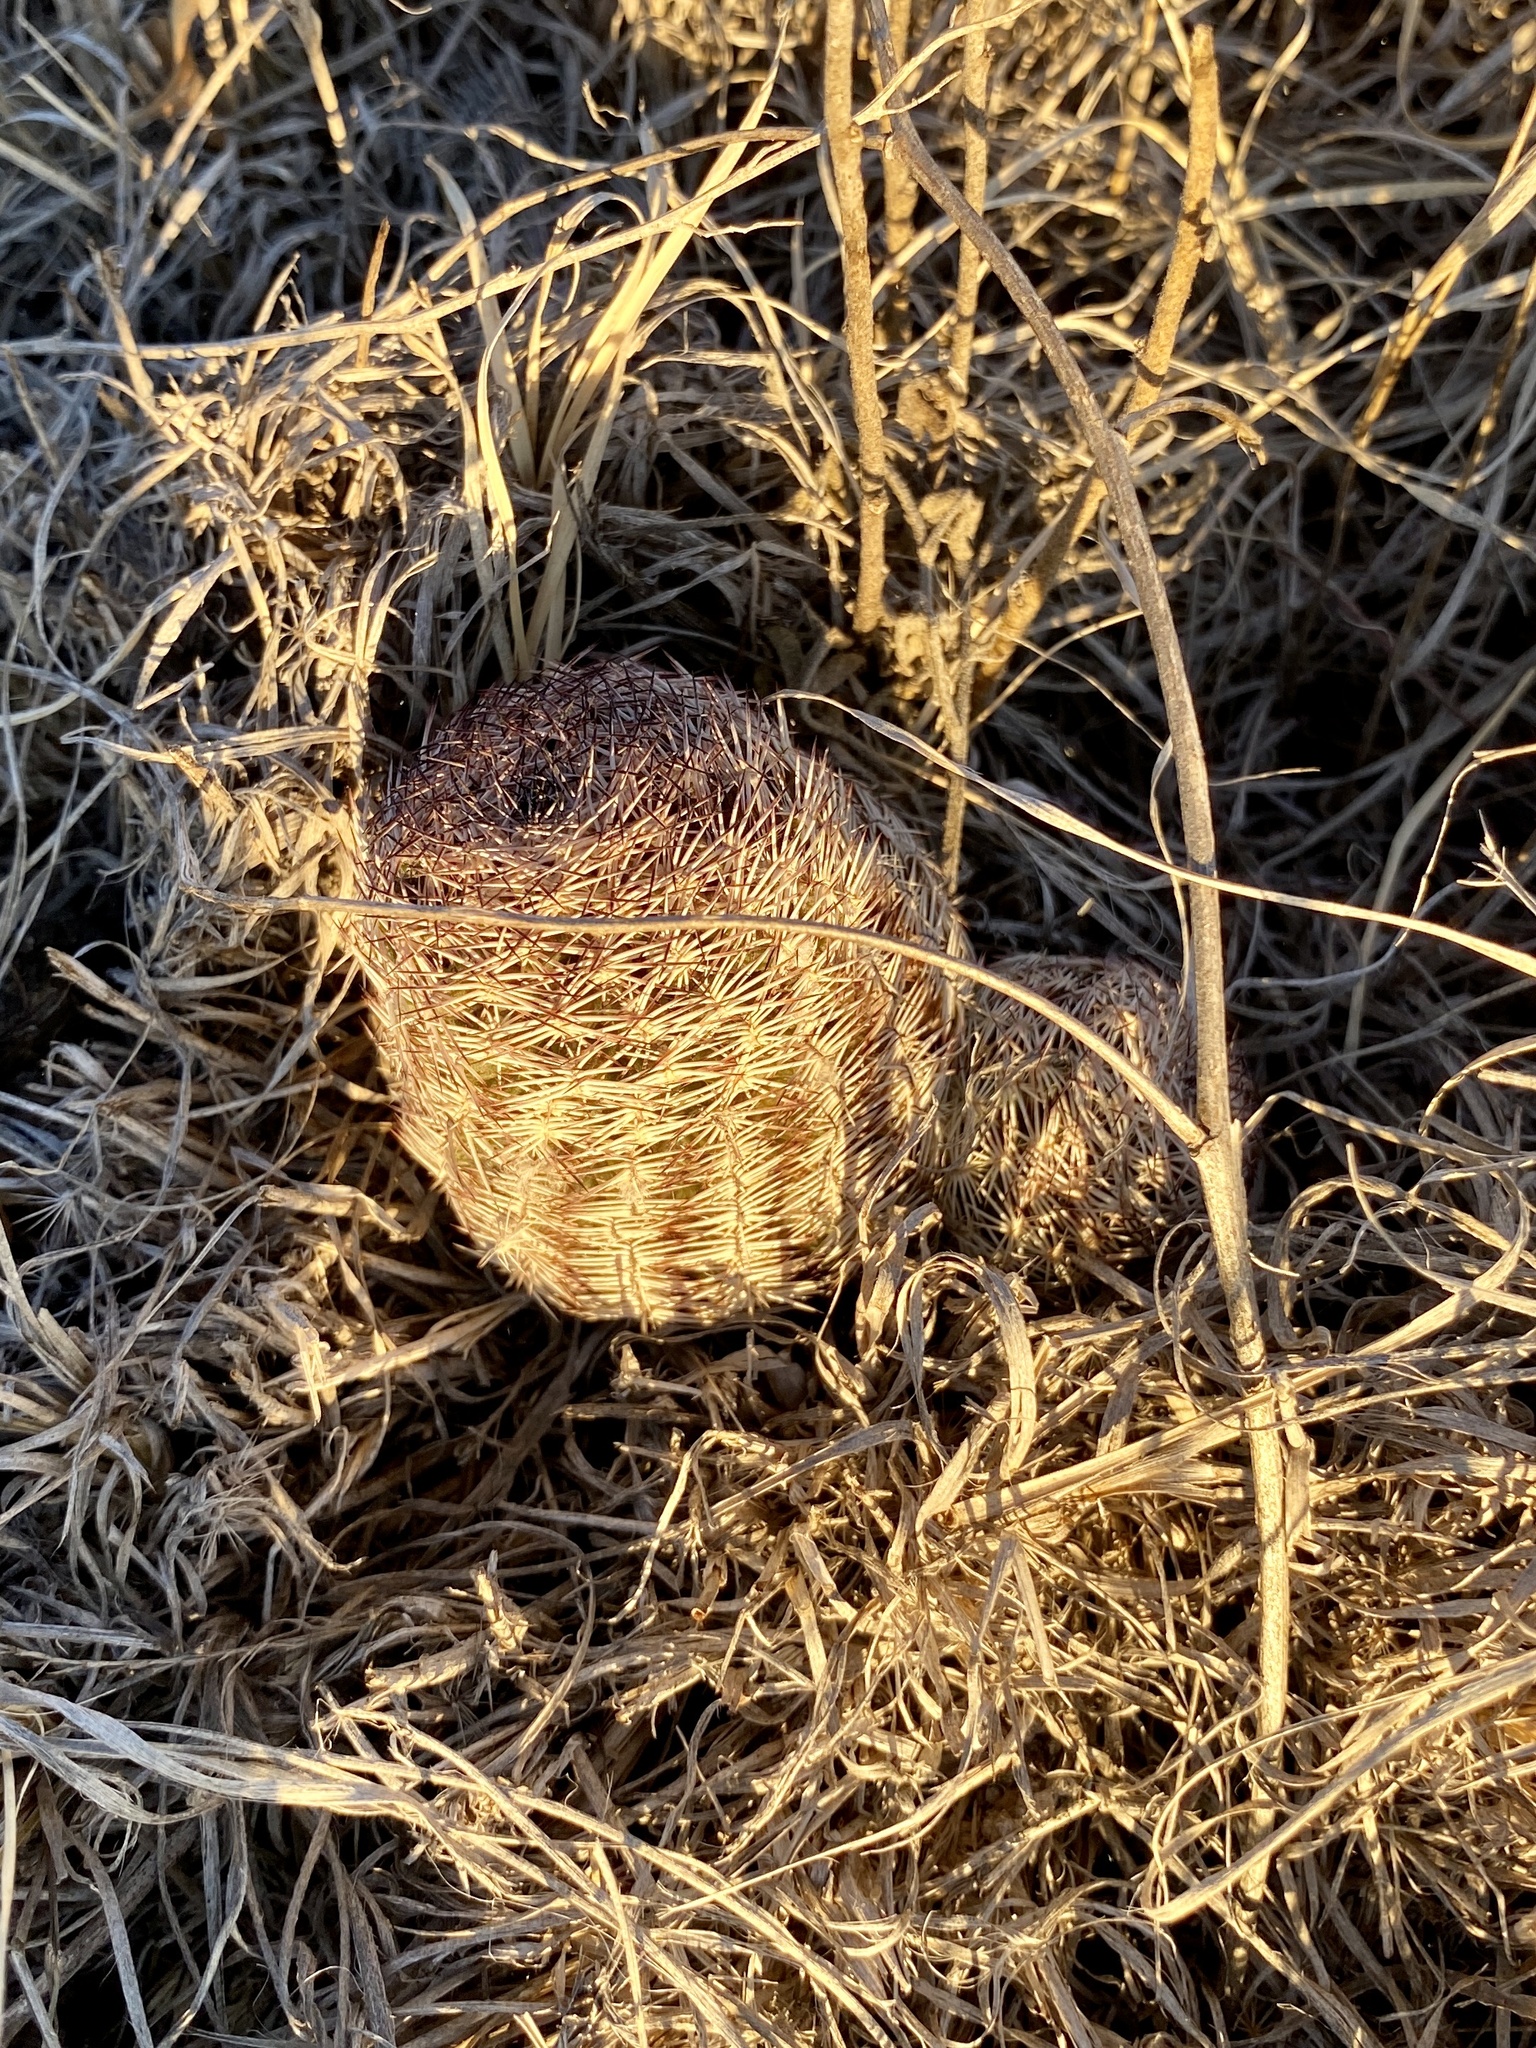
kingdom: Plantae
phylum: Tracheophyta
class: Magnoliopsida
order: Caryophyllales
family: Cactaceae
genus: Echinocereus
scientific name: Echinocereus reichenbachii
